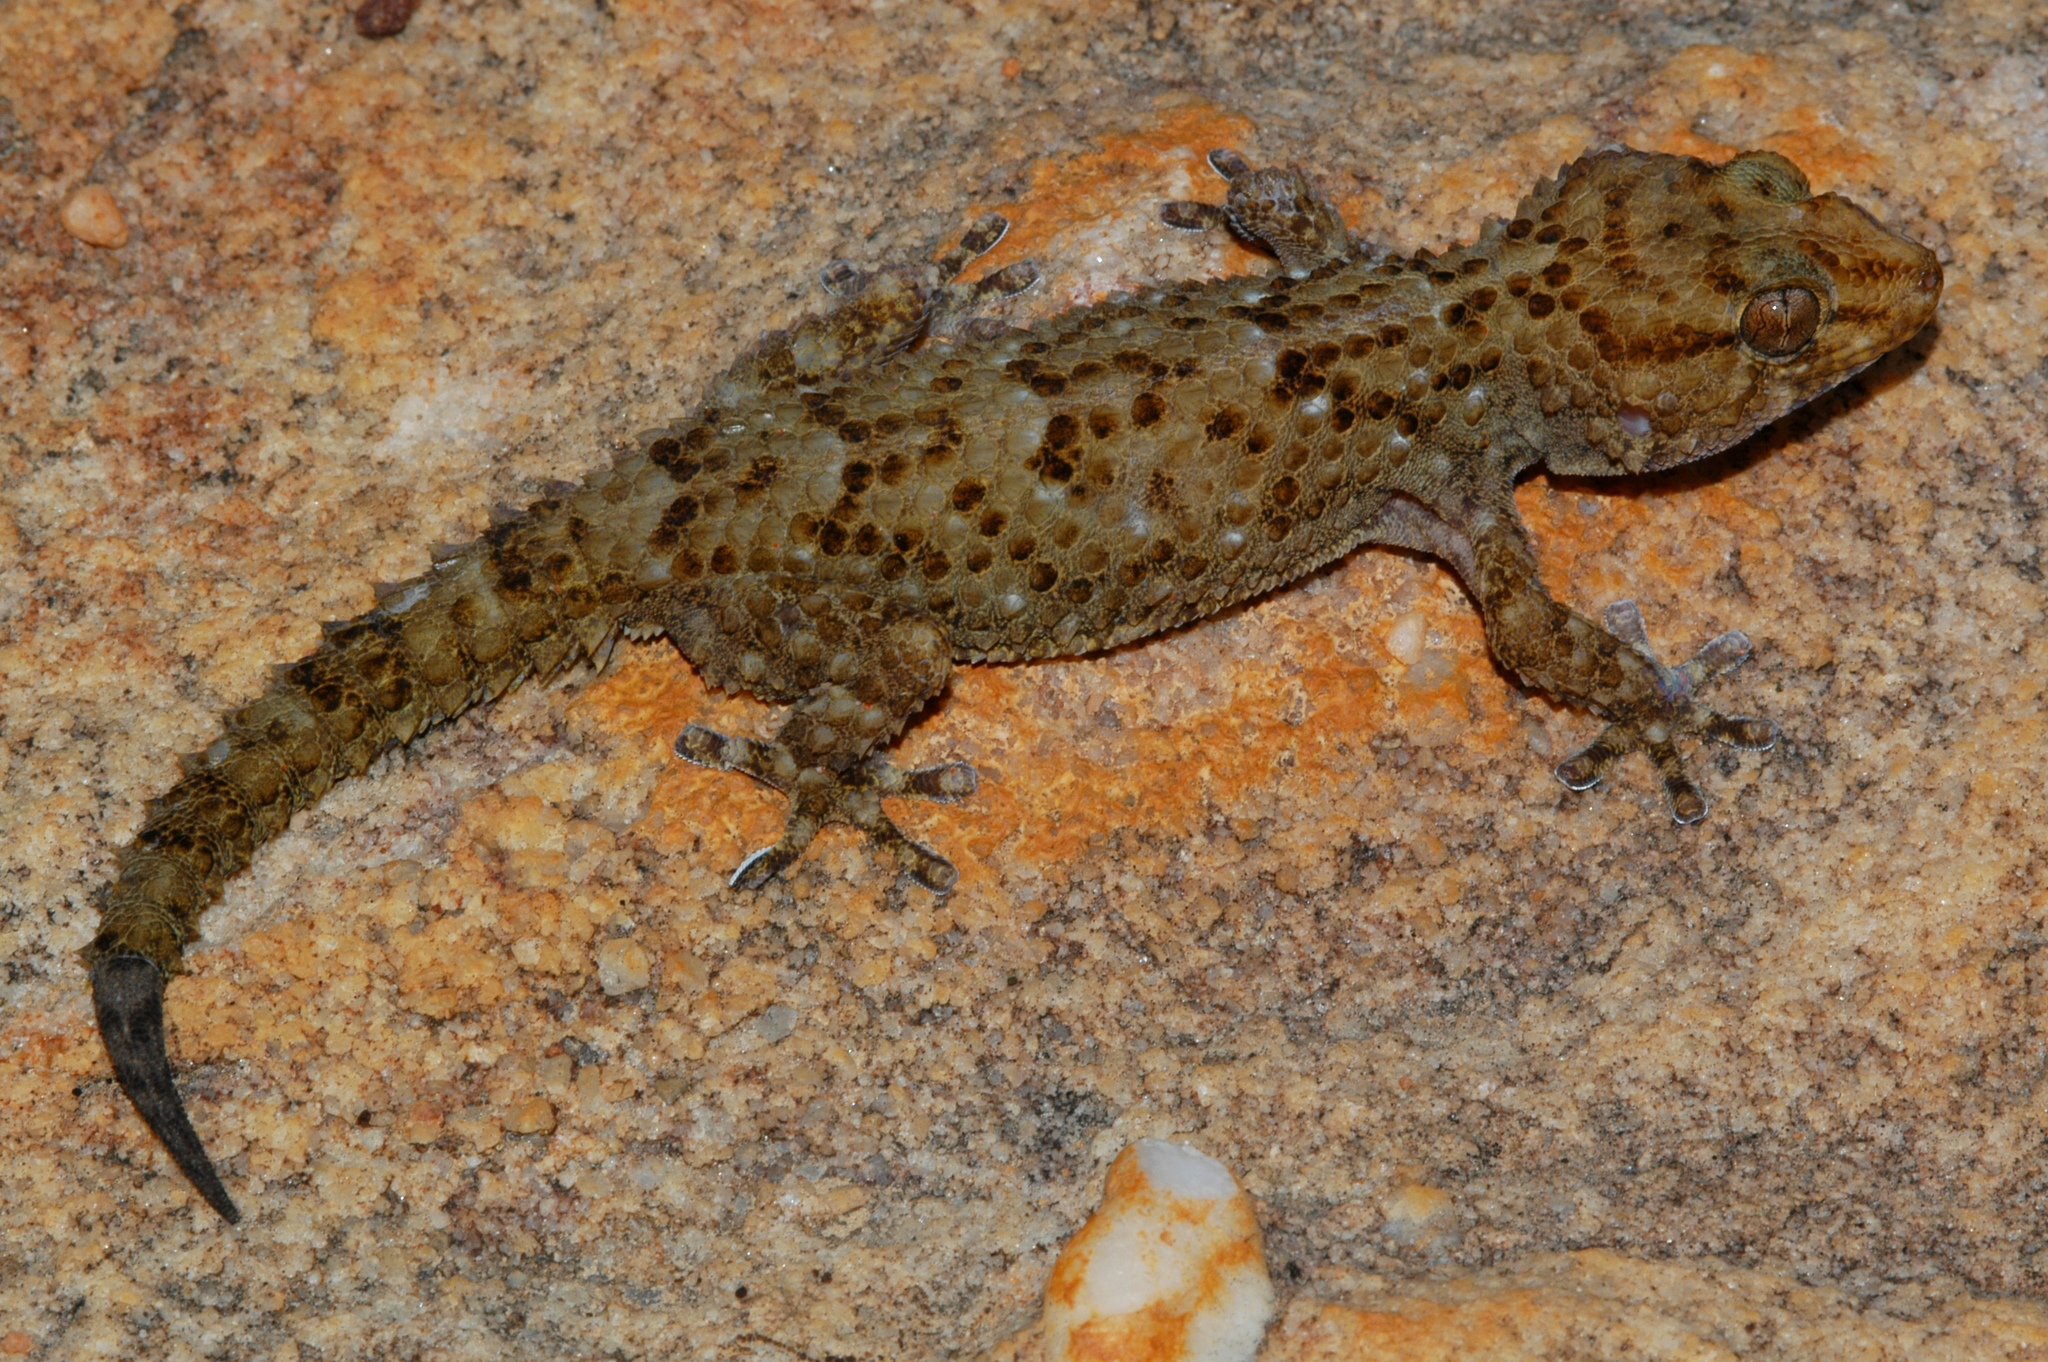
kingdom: Animalia
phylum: Chordata
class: Squamata
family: Gekkonidae
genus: Chondrodactylus
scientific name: Chondrodactylus bibronii
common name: Bibron's gecko
